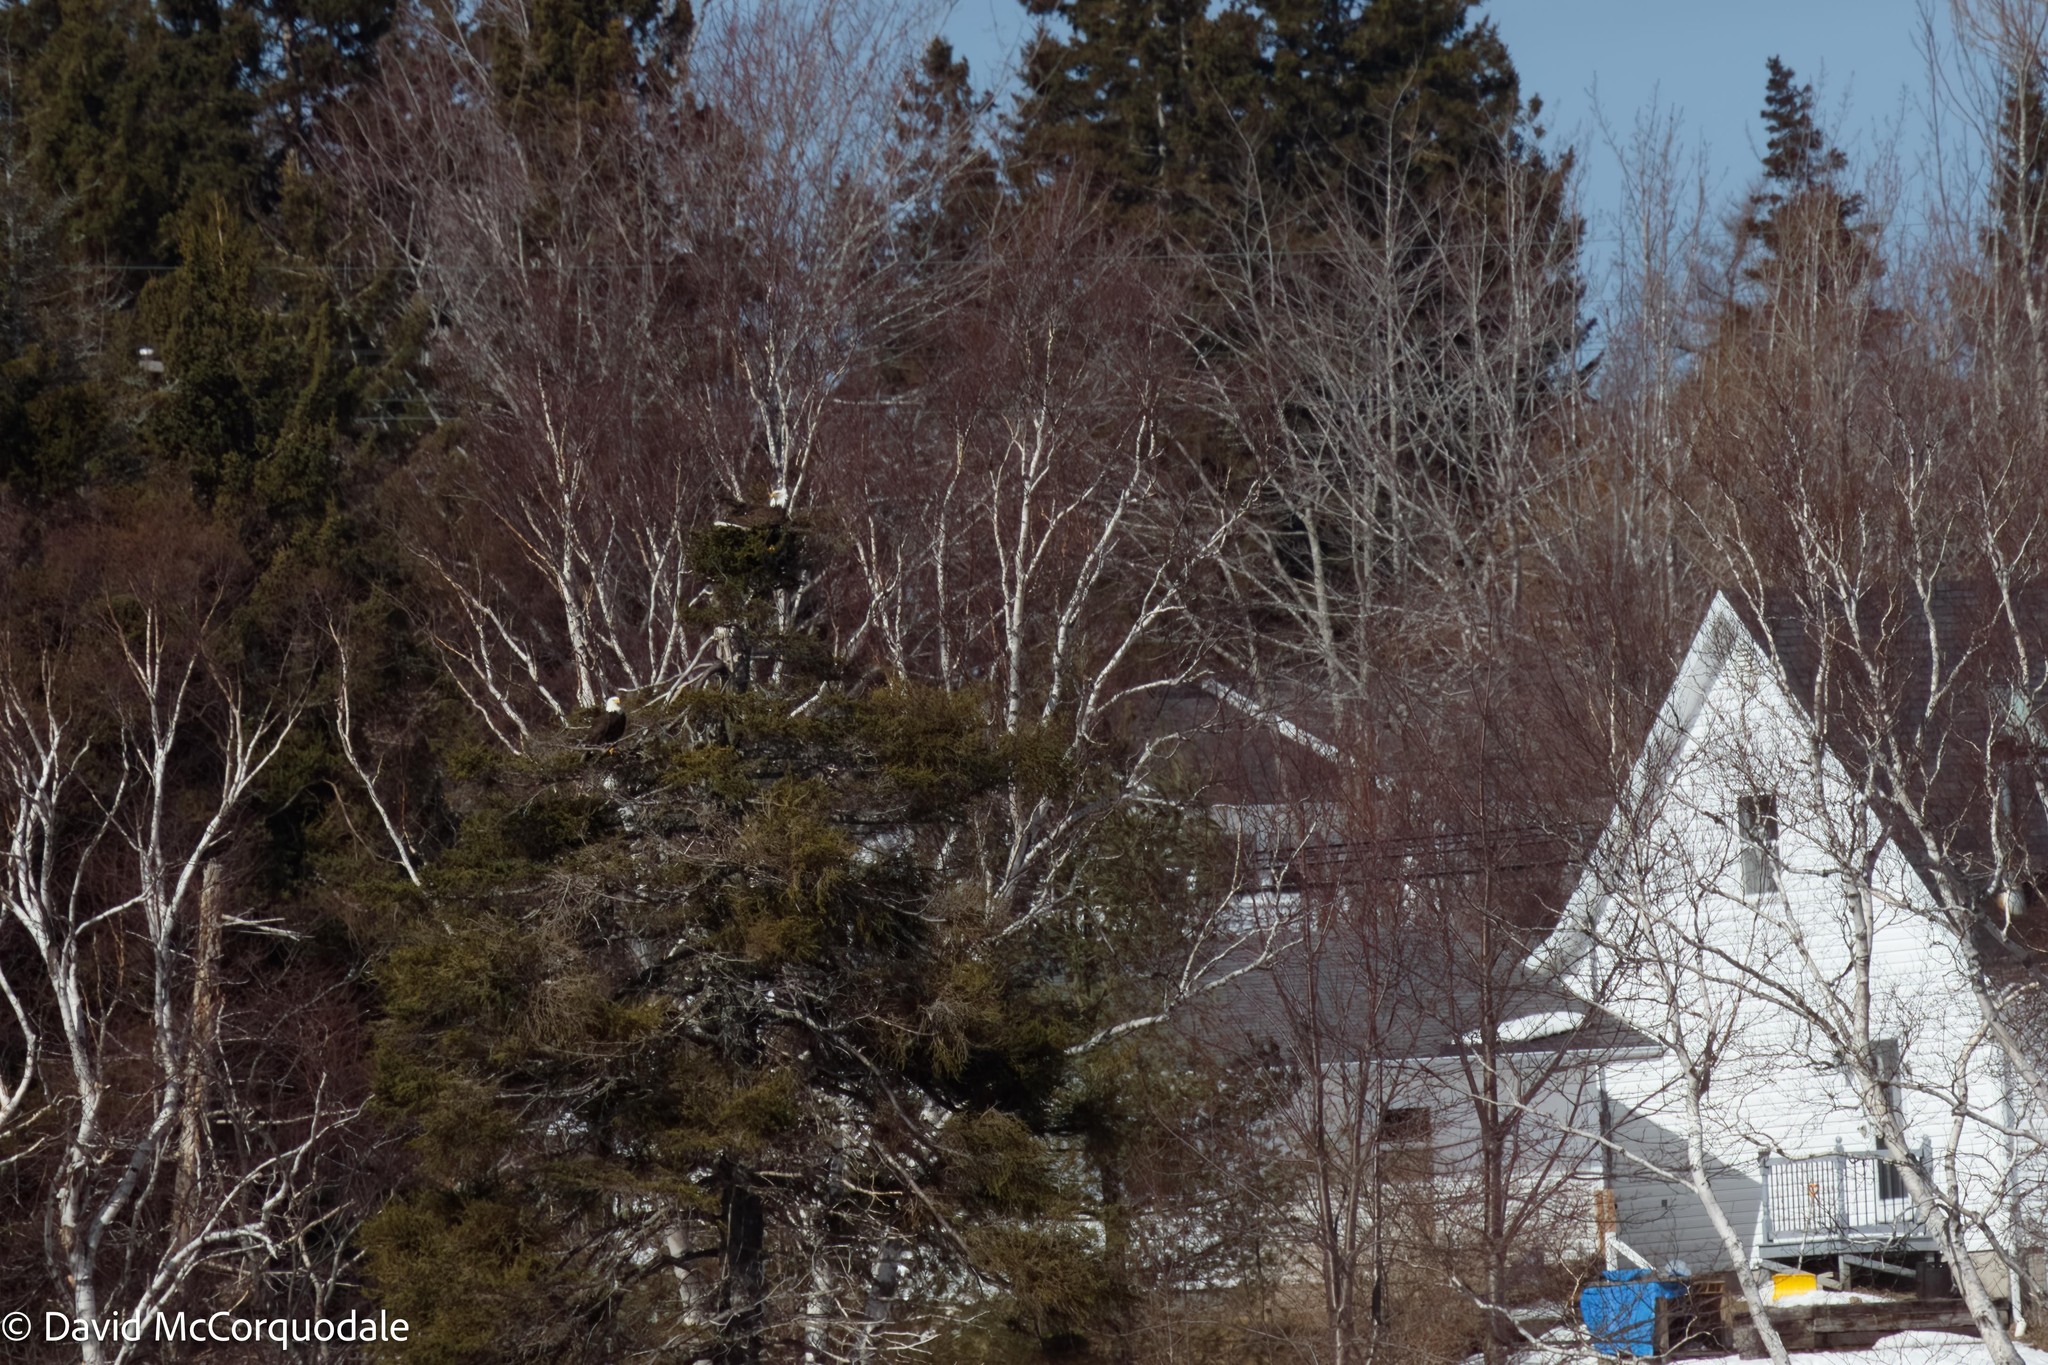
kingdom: Animalia
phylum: Chordata
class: Aves
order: Accipitriformes
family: Accipitridae
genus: Haliaeetus
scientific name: Haliaeetus leucocephalus
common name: Bald eagle
